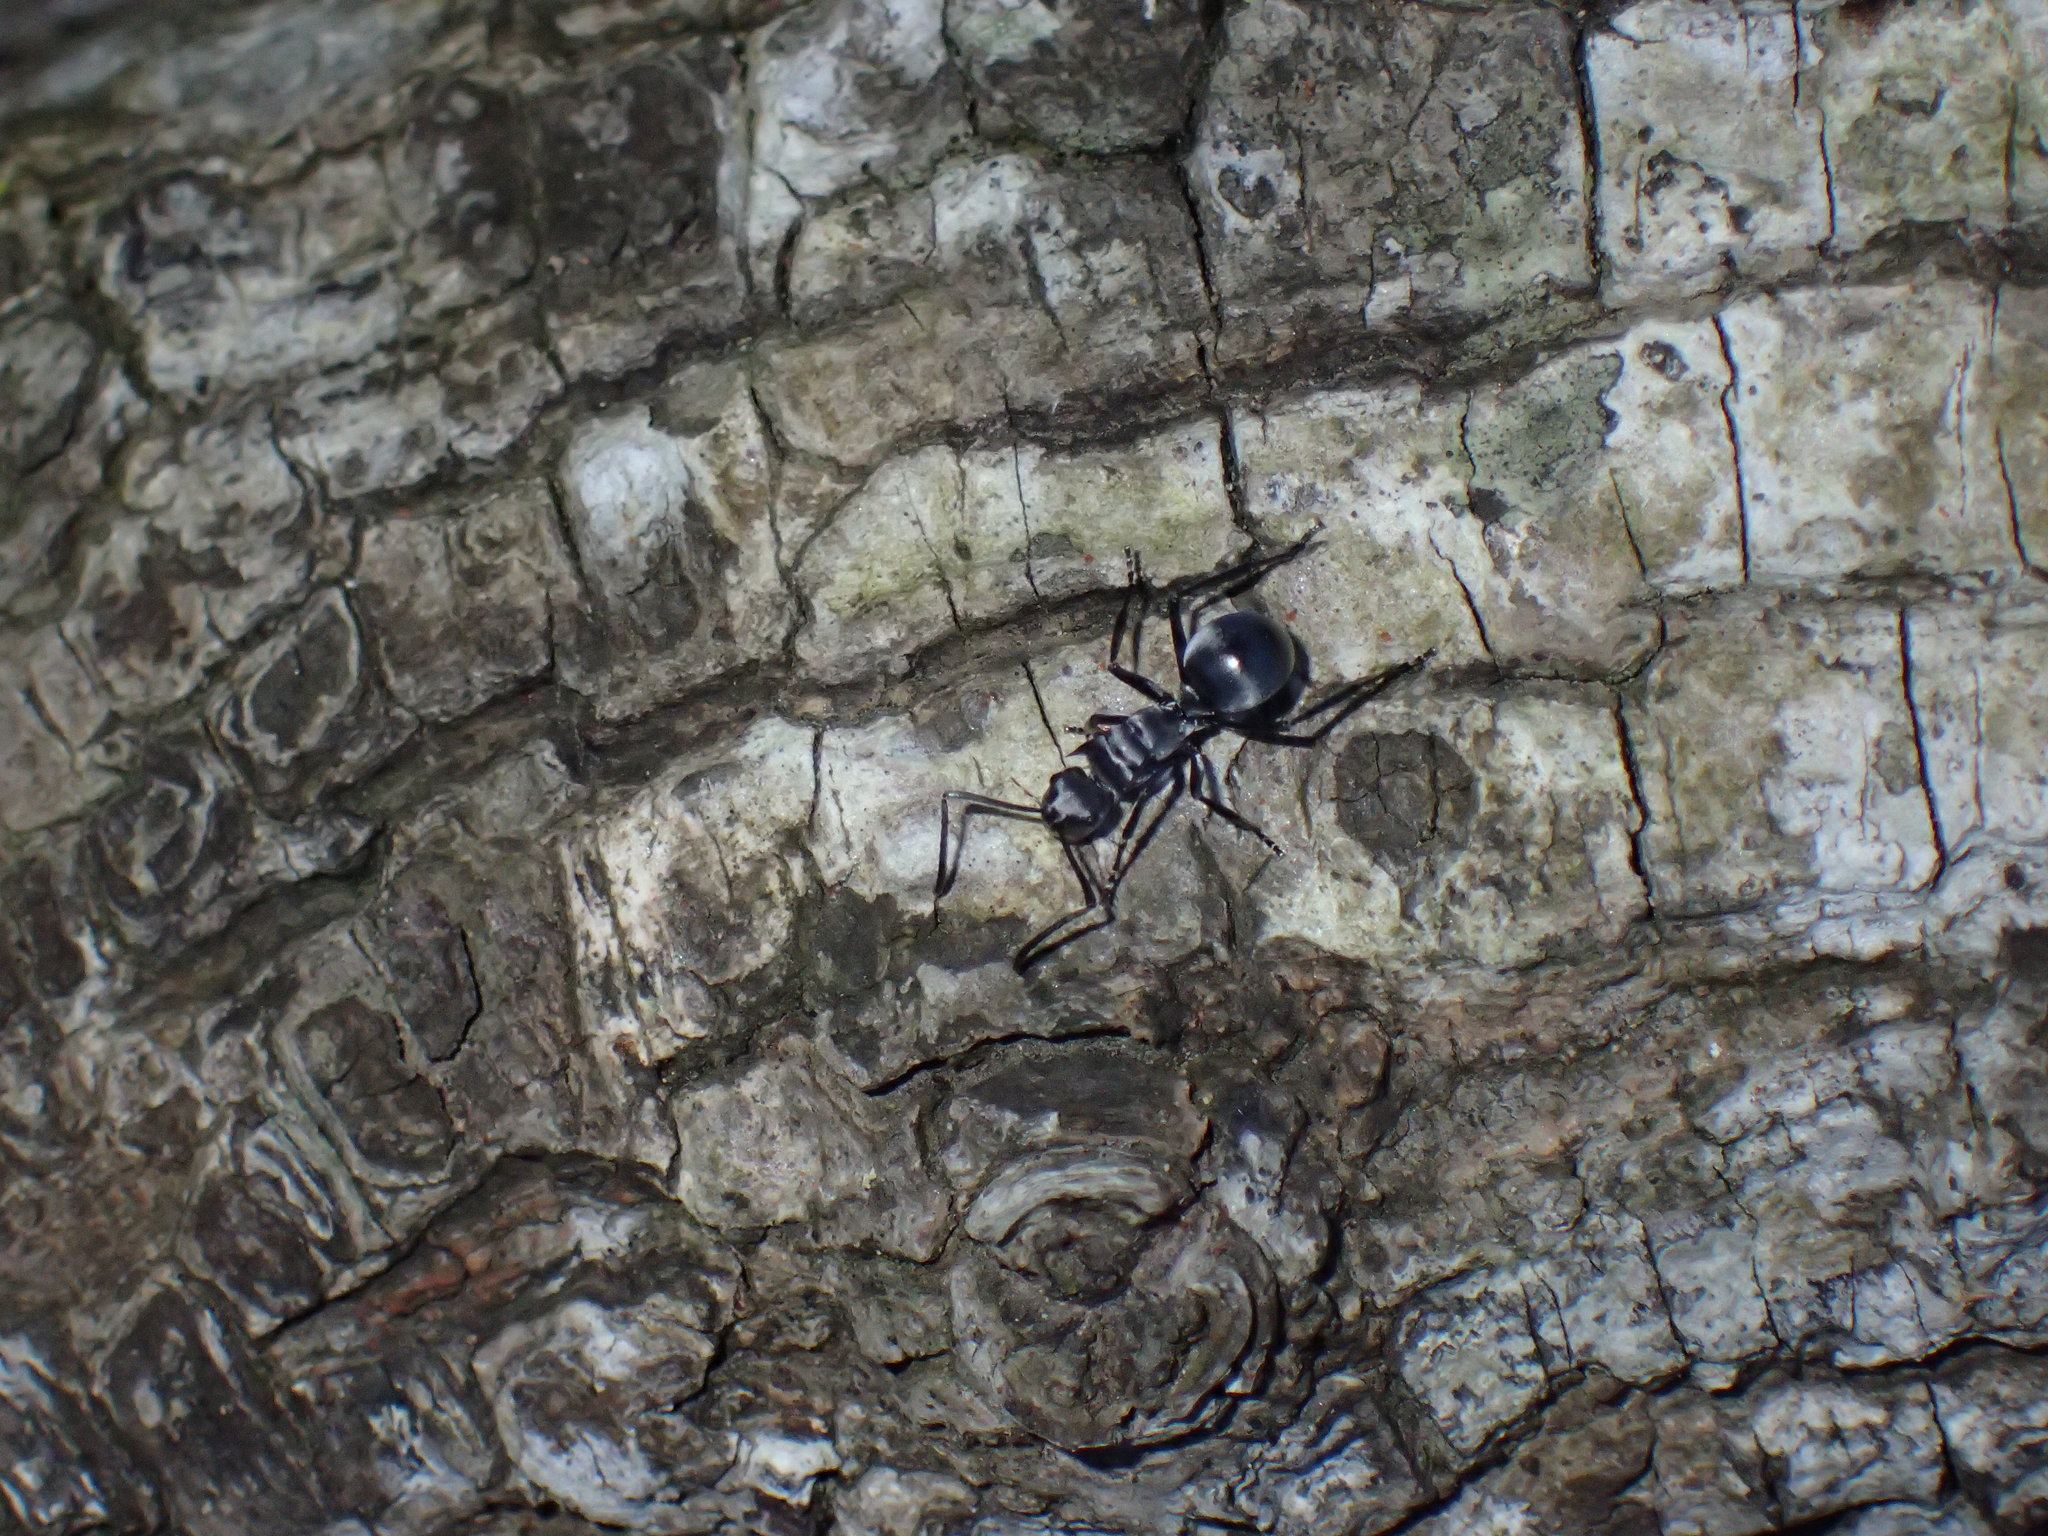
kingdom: Animalia
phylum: Arthropoda
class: Insecta
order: Hymenoptera
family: Formicidae
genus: Polyrhachis
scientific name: Polyrhachis schlueteri
